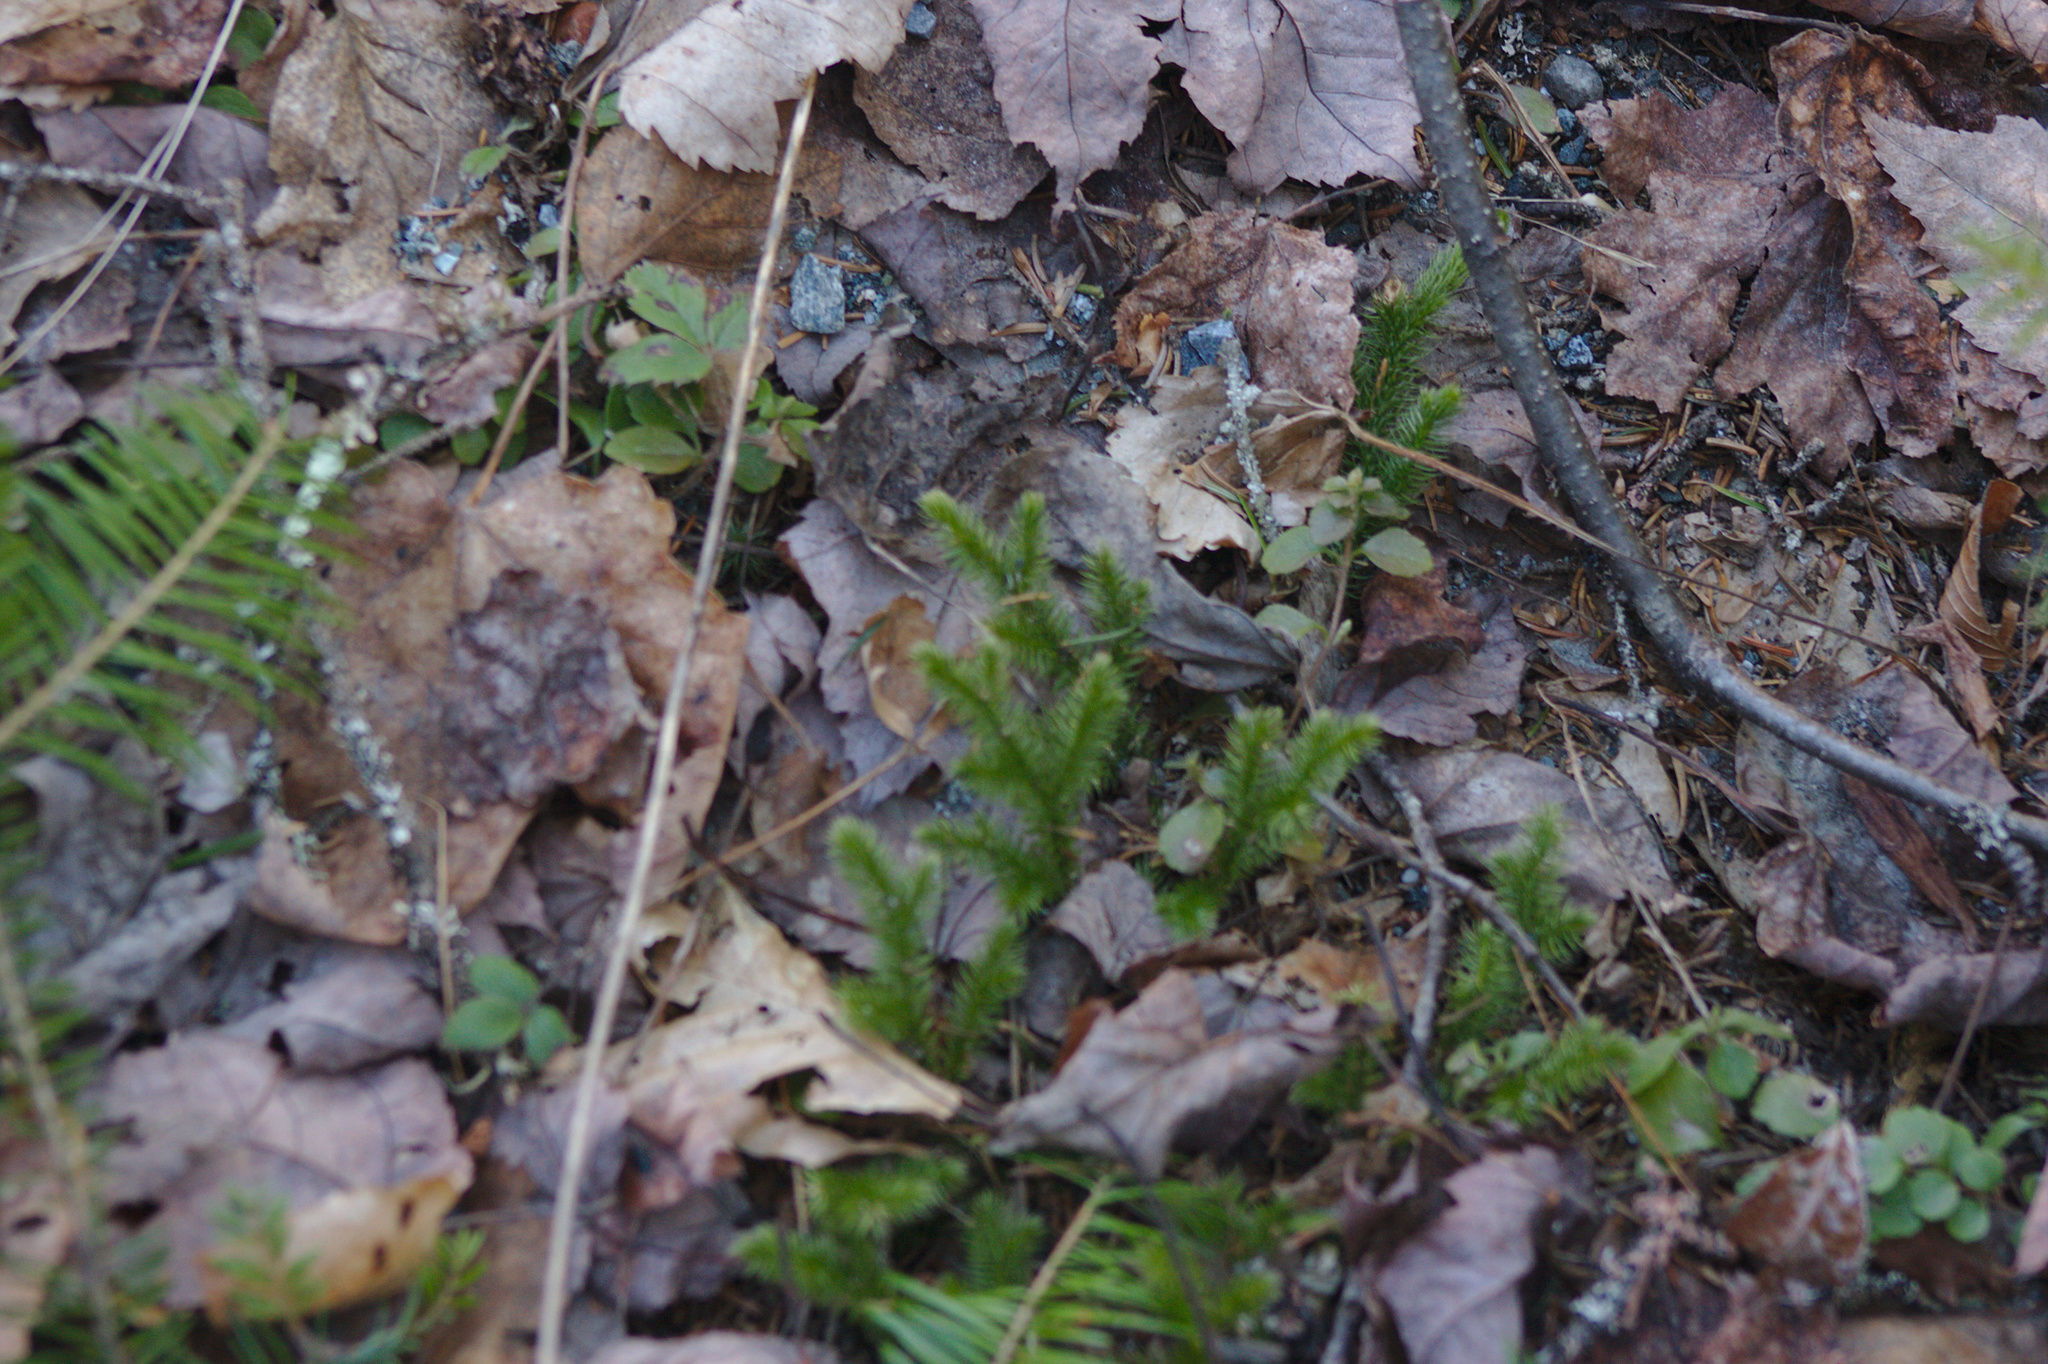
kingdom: Plantae
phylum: Tracheophyta
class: Lycopodiopsida
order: Lycopodiales
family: Lycopodiaceae
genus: Lycopodium
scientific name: Lycopodium clavatum
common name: Stag's-horn clubmoss
